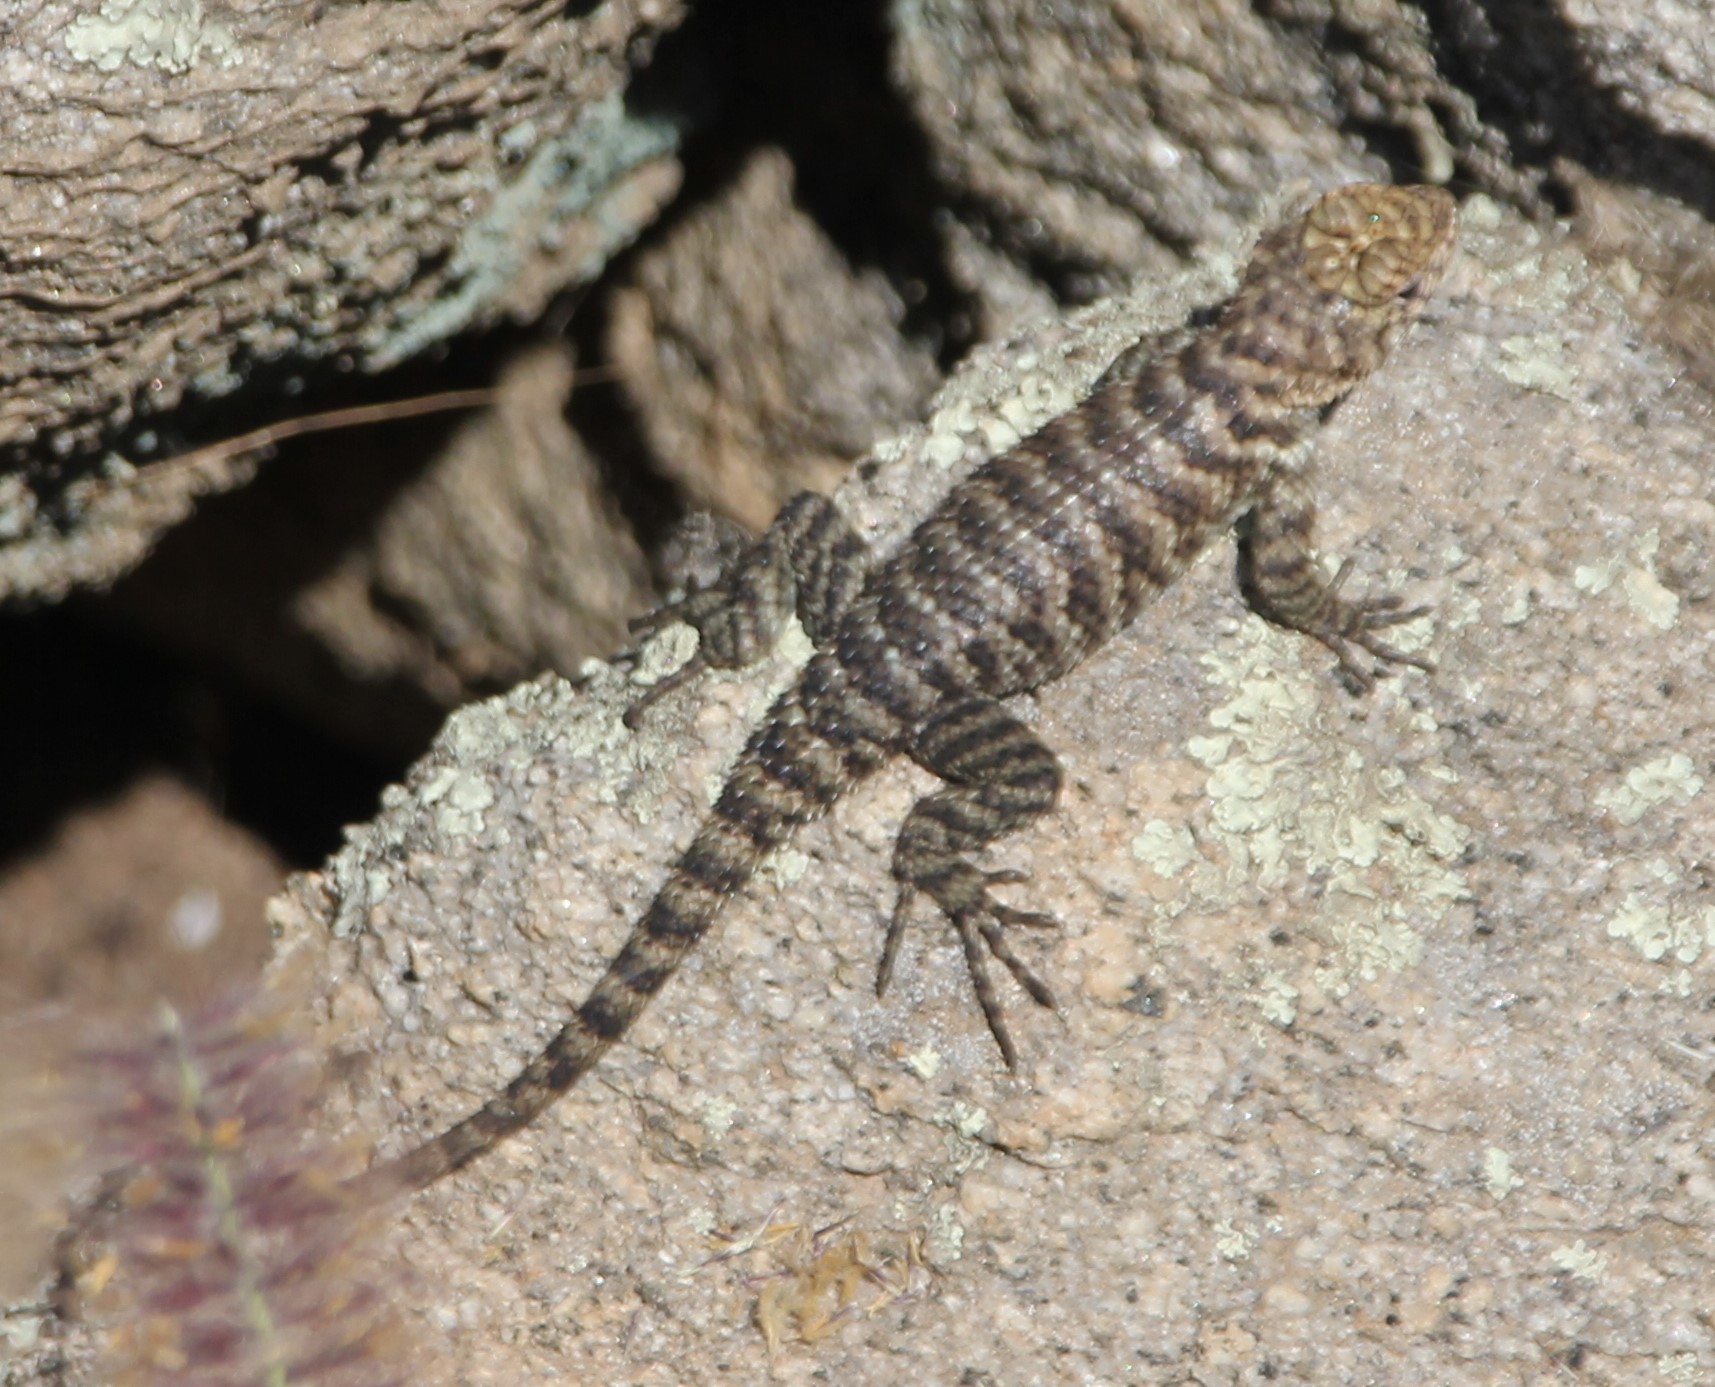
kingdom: Animalia
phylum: Chordata
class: Squamata
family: Phrynosomatidae
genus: Sceloporus
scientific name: Sceloporus orcutti
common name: Granite spiny lizard
